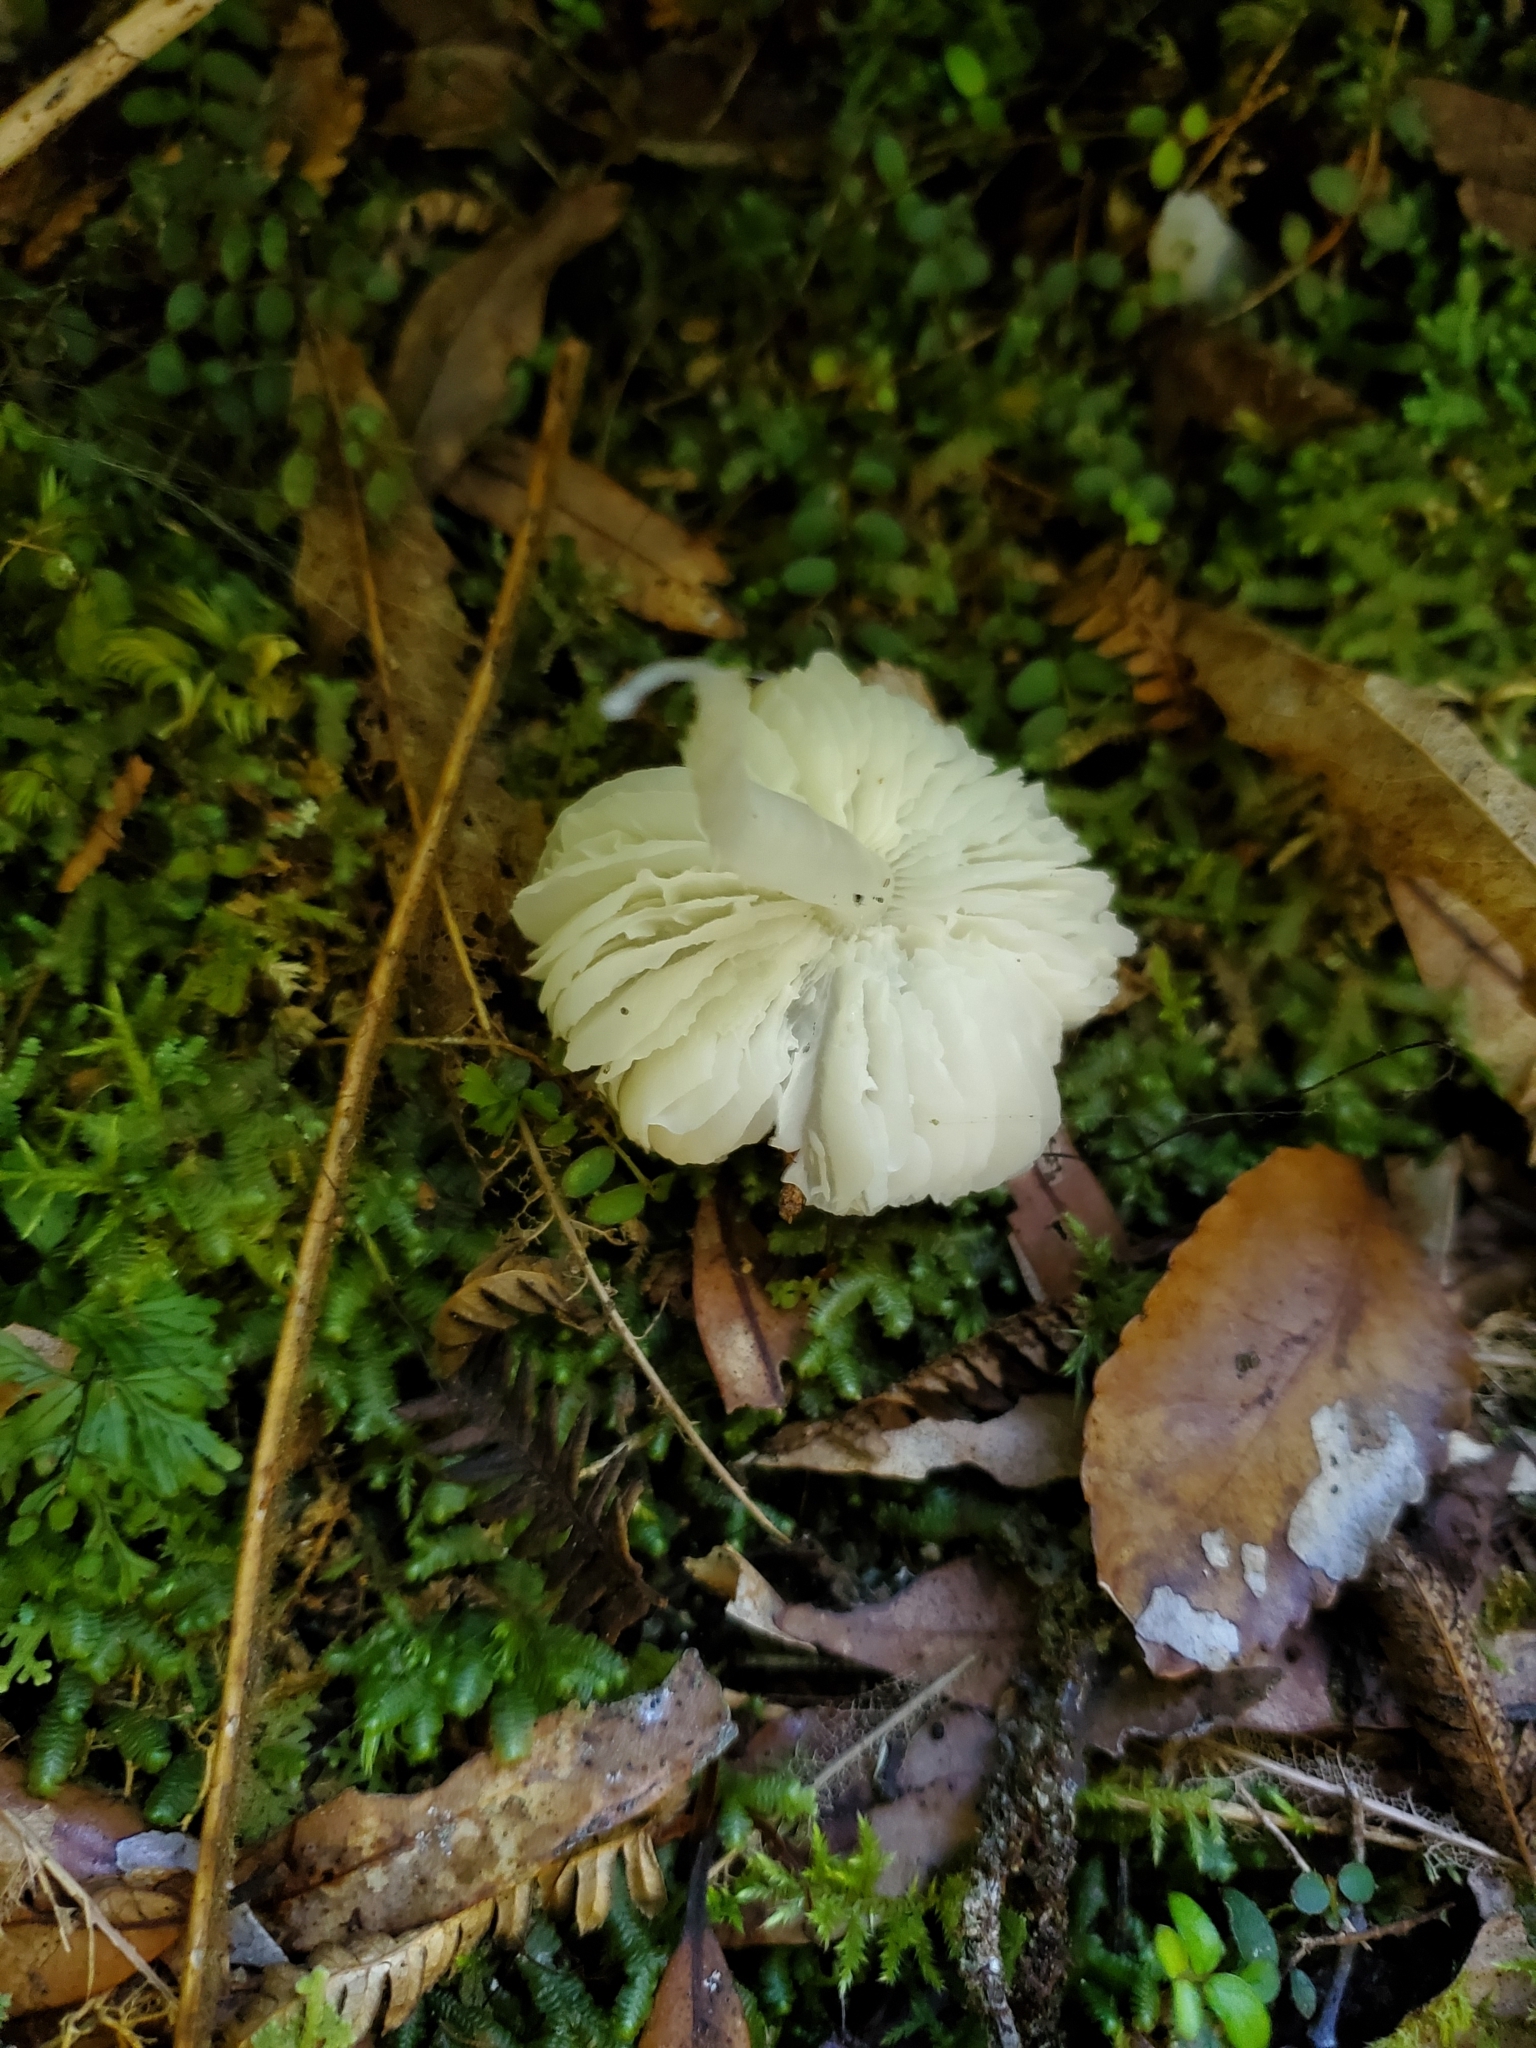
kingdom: Fungi
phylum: Basidiomycota
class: Agaricomycetes
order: Agaricales
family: Hygrophoraceae
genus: Humidicutis
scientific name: Humidicutis mavis
